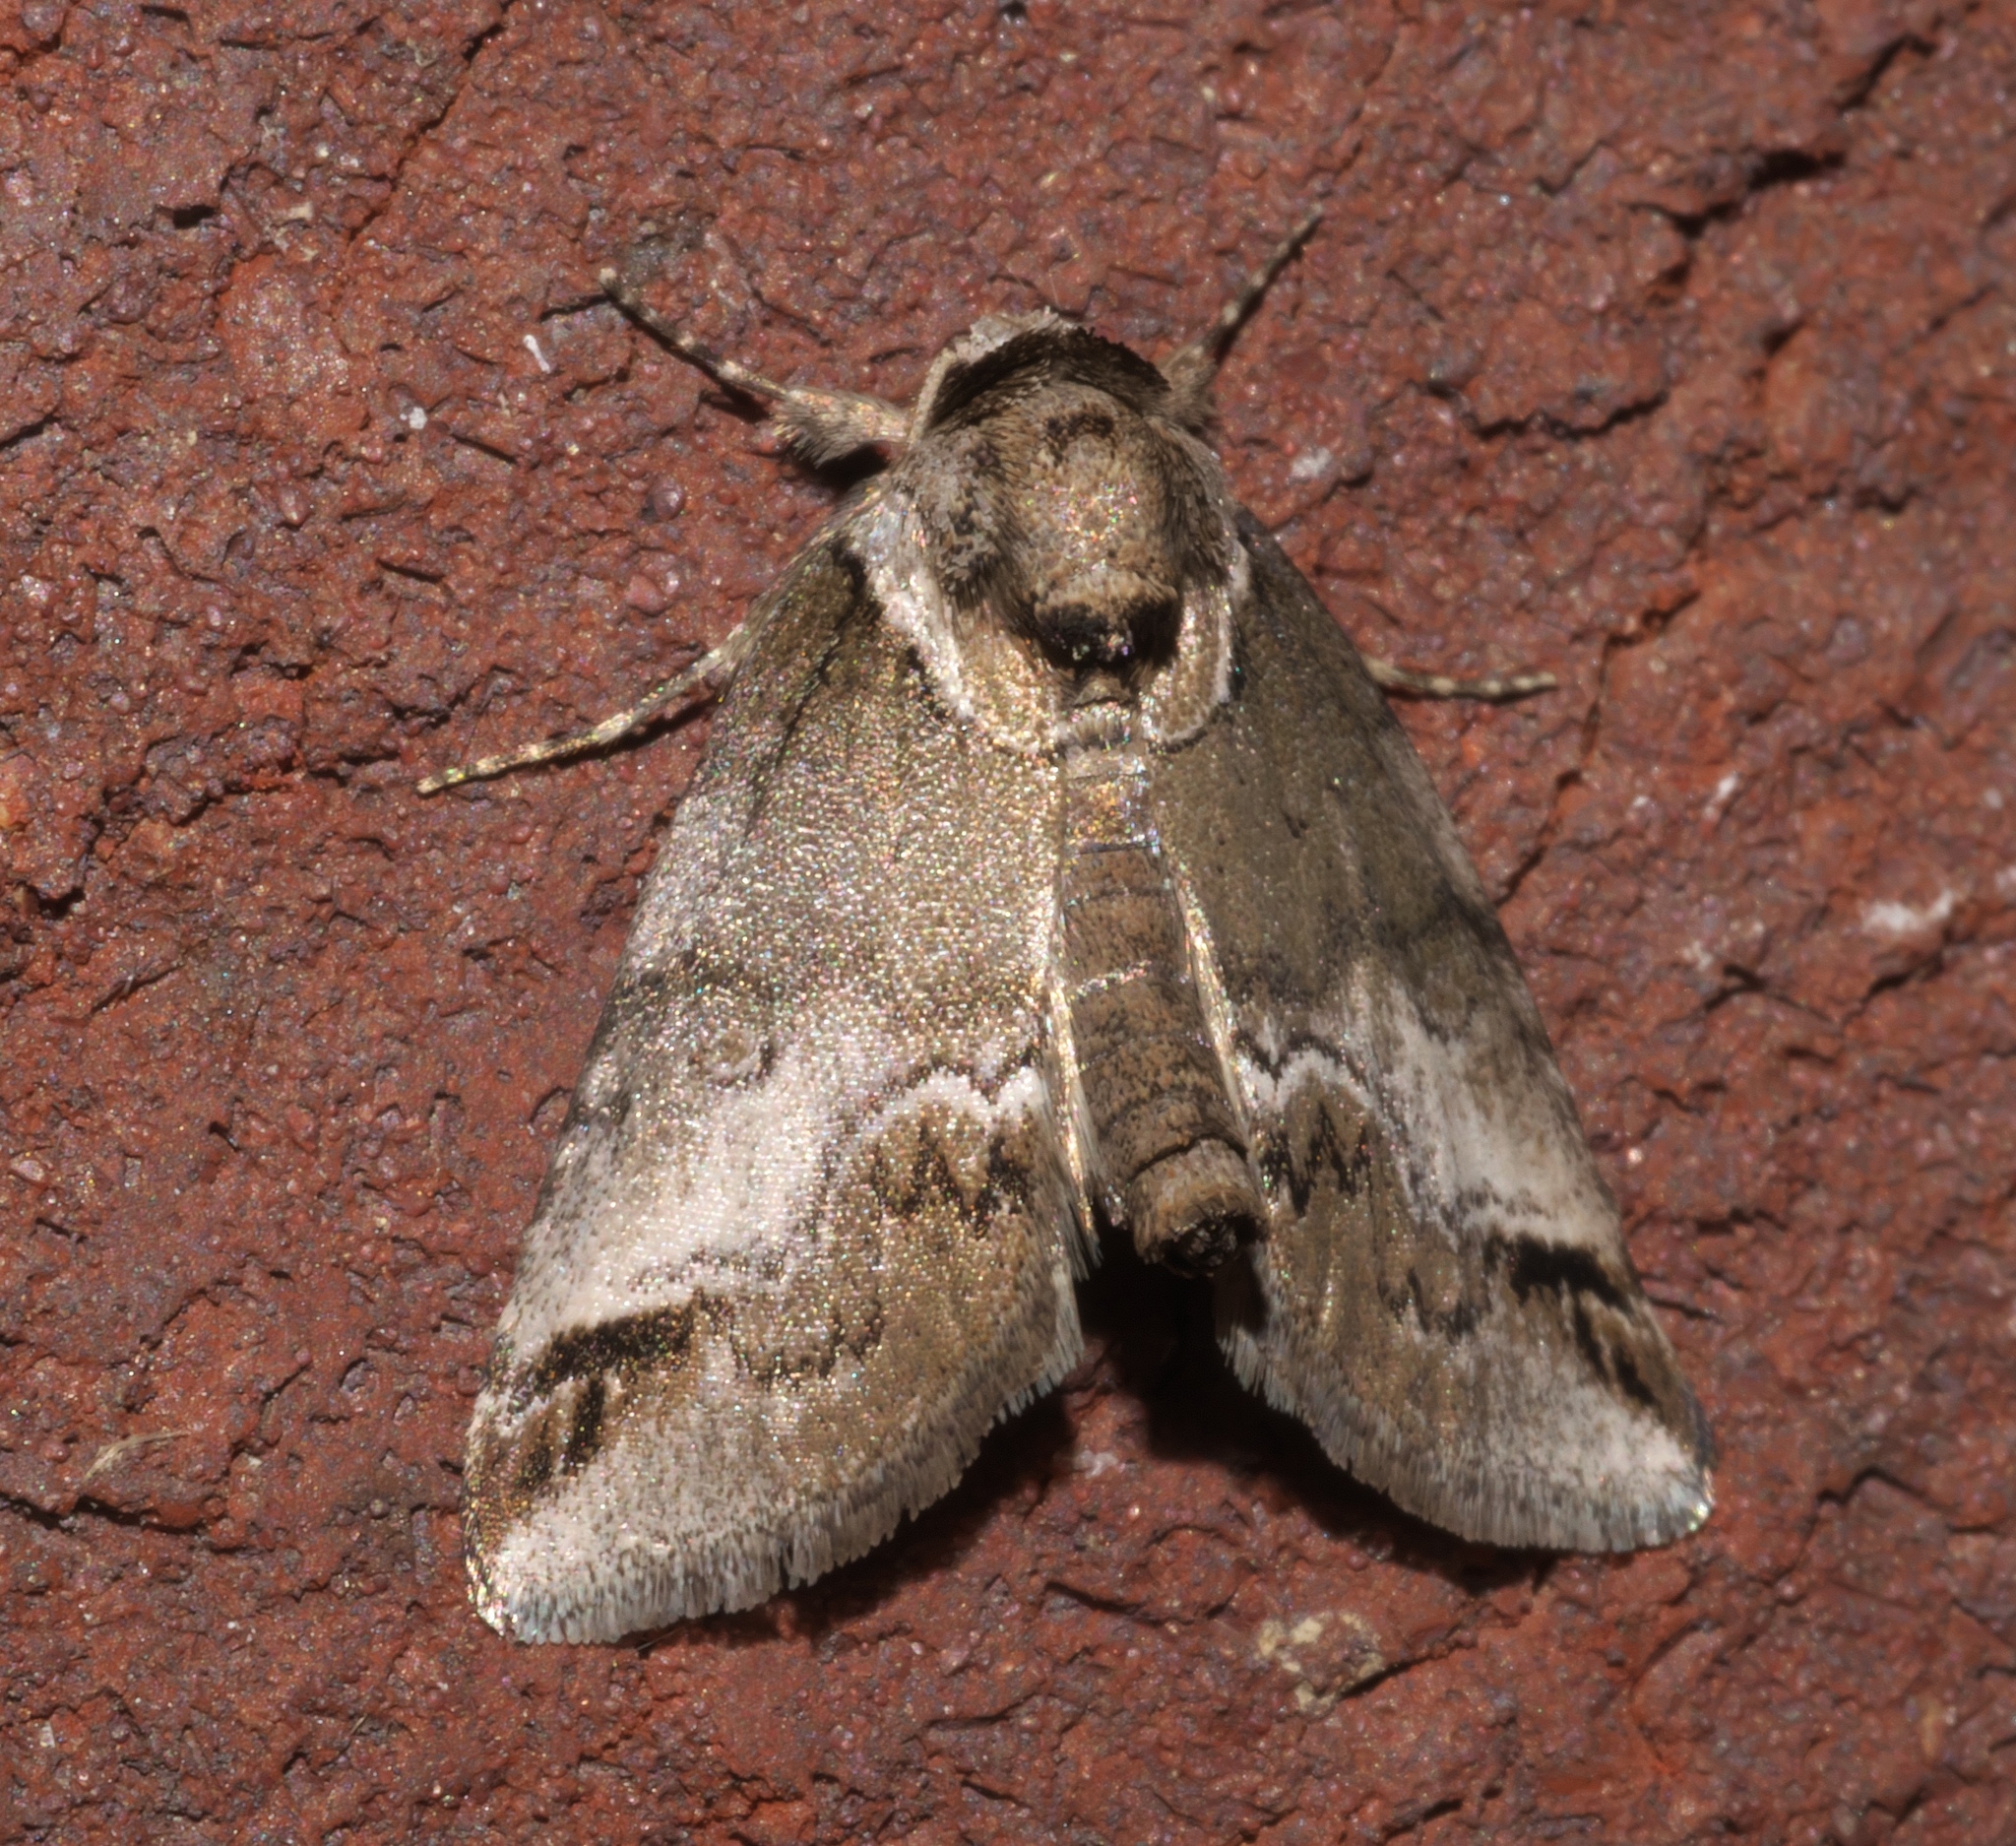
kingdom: Animalia
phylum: Arthropoda
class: Insecta
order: Lepidoptera
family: Nolidae
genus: Baileya
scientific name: Baileya australis
